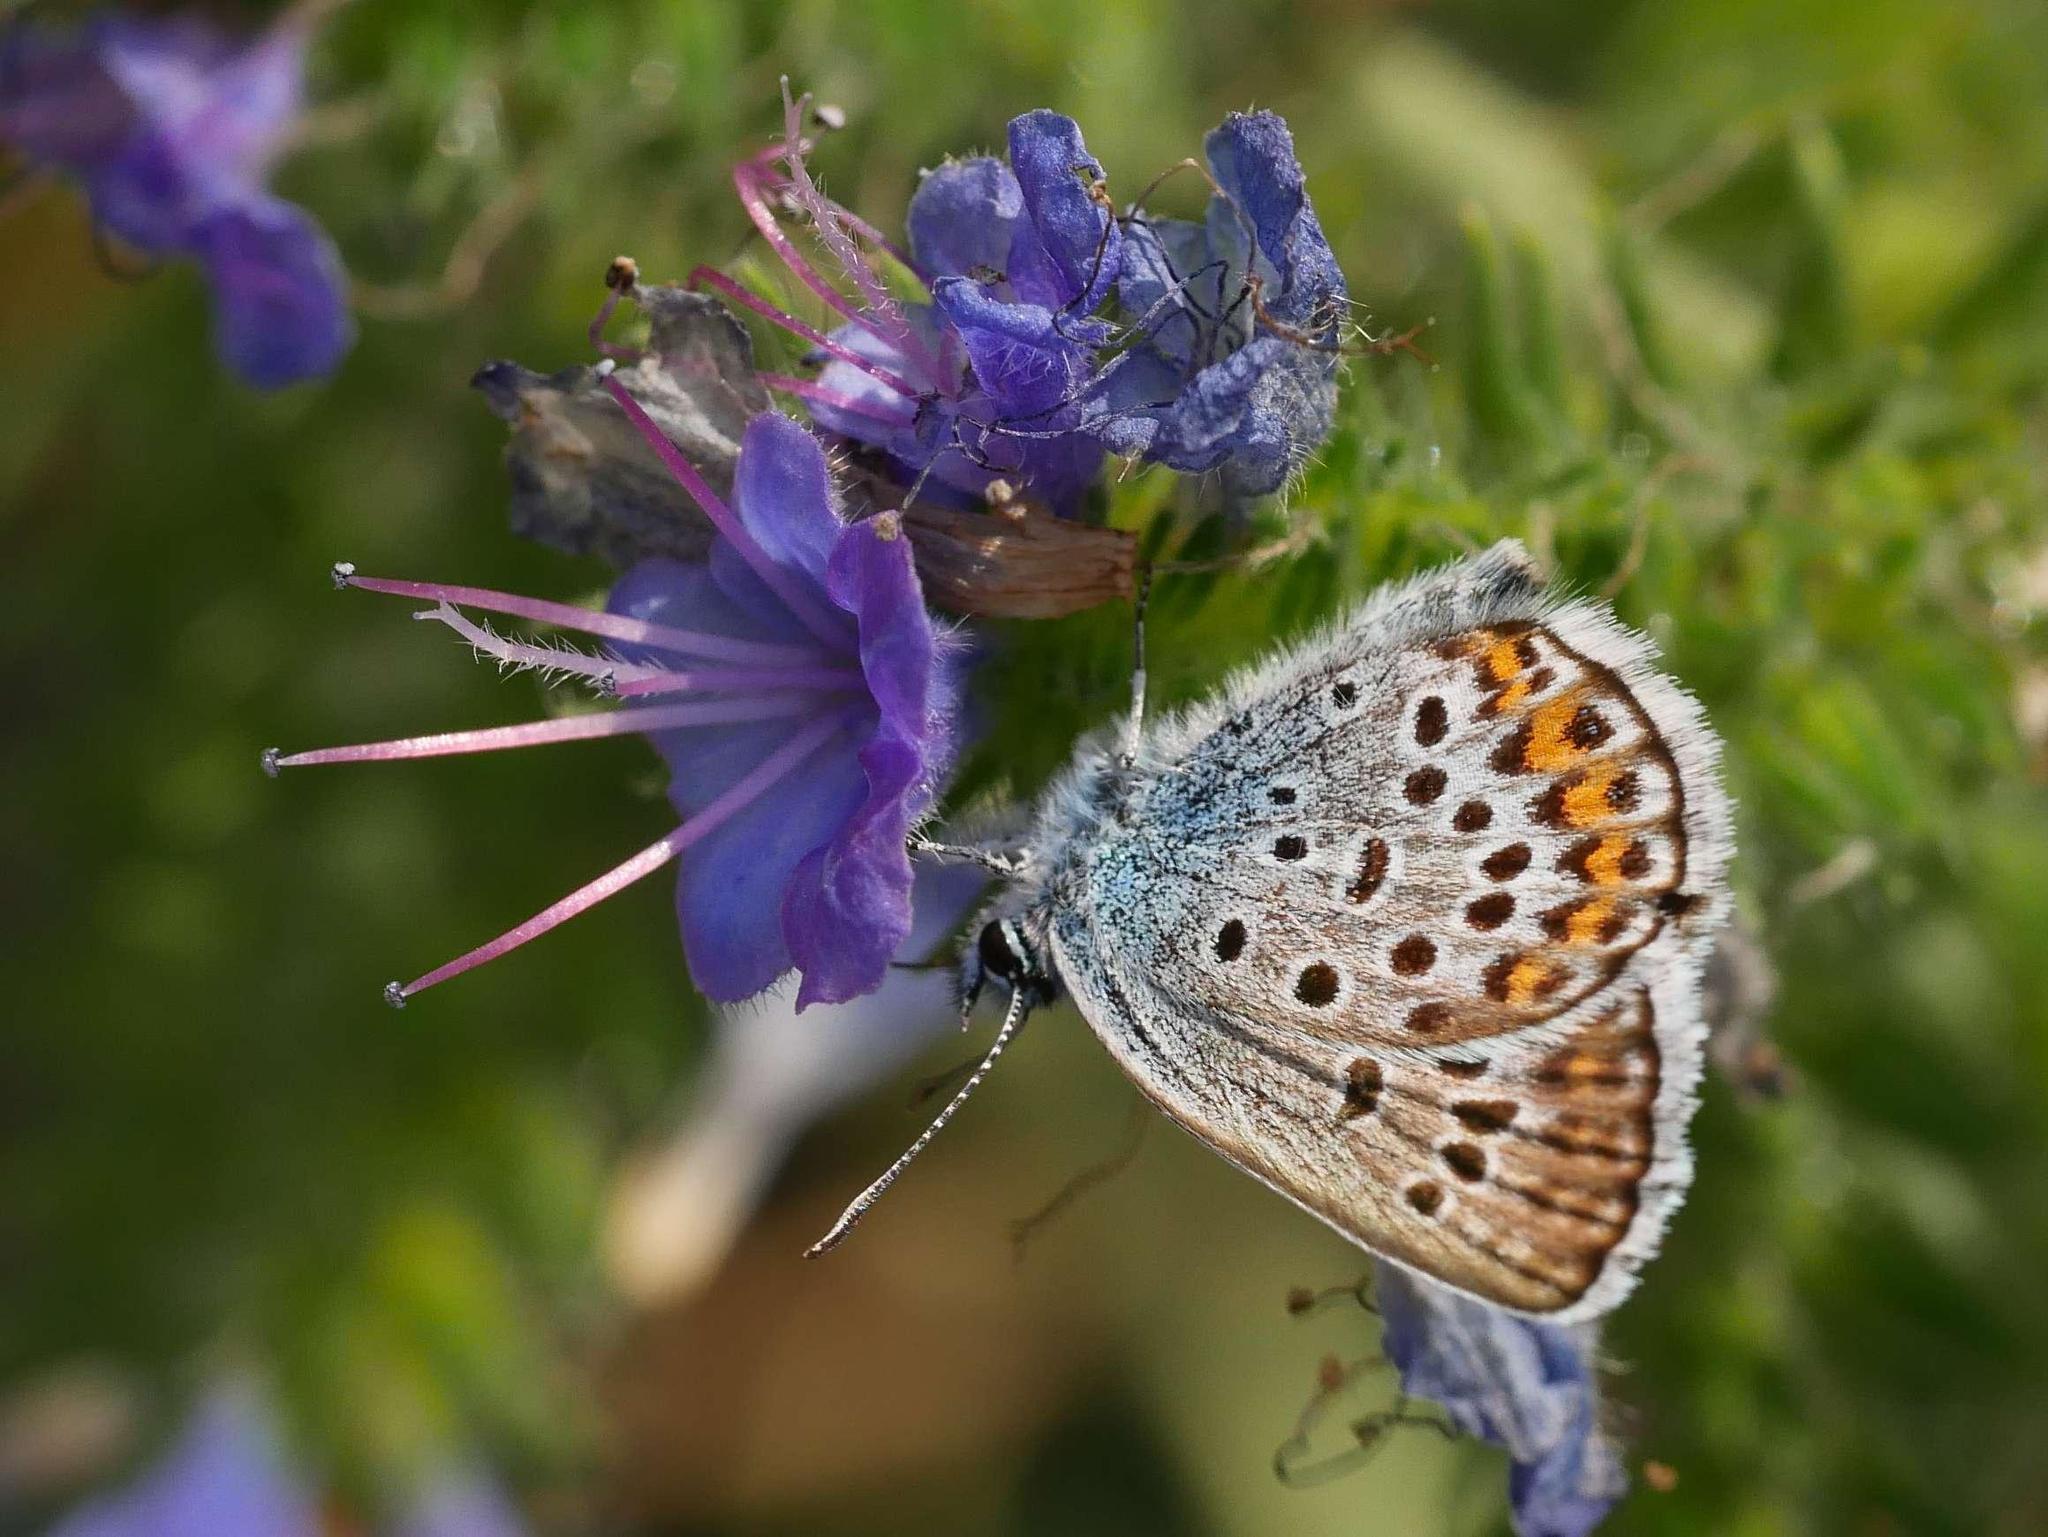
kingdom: Animalia
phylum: Arthropoda
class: Insecta
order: Lepidoptera
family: Lycaenidae
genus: Plebejus
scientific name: Plebejus argus
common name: Silver-studded blue
